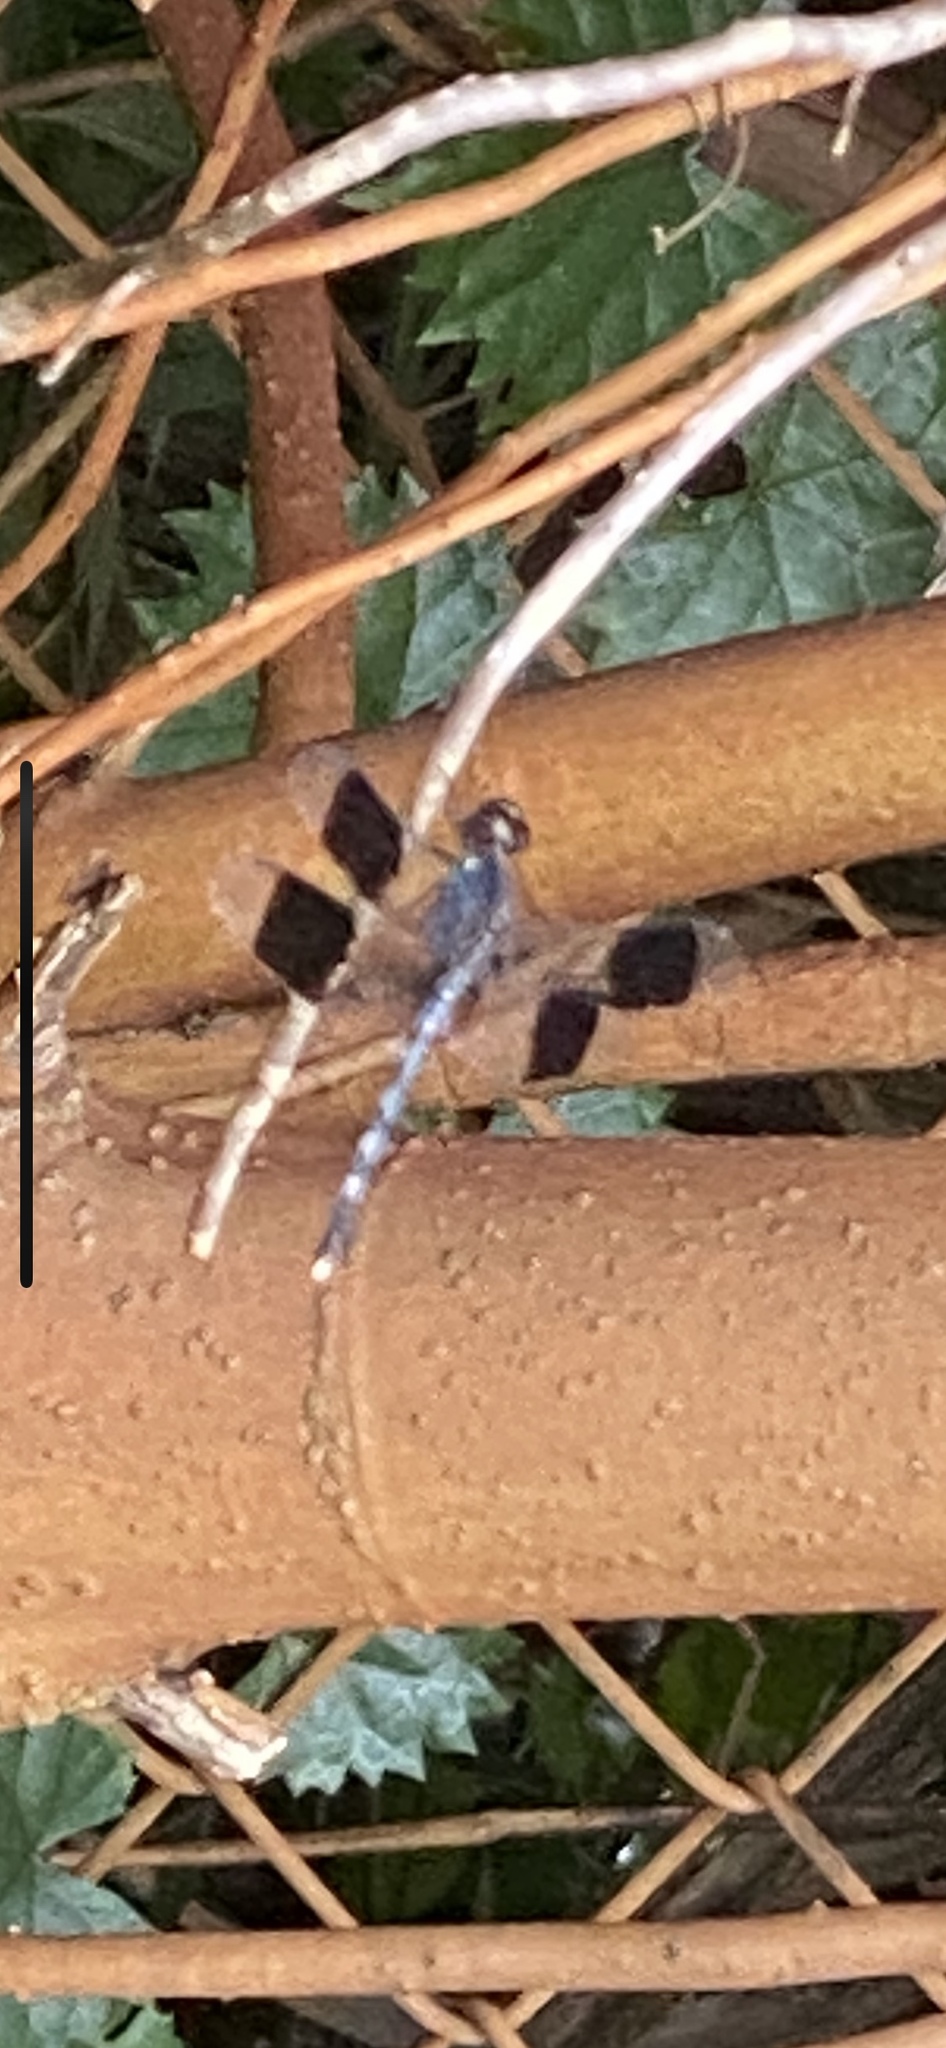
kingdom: Animalia
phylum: Arthropoda
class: Insecta
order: Odonata
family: Libellulidae
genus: Erythrodiplax
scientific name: Erythrodiplax umbrata
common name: Band-winged dragonlet
